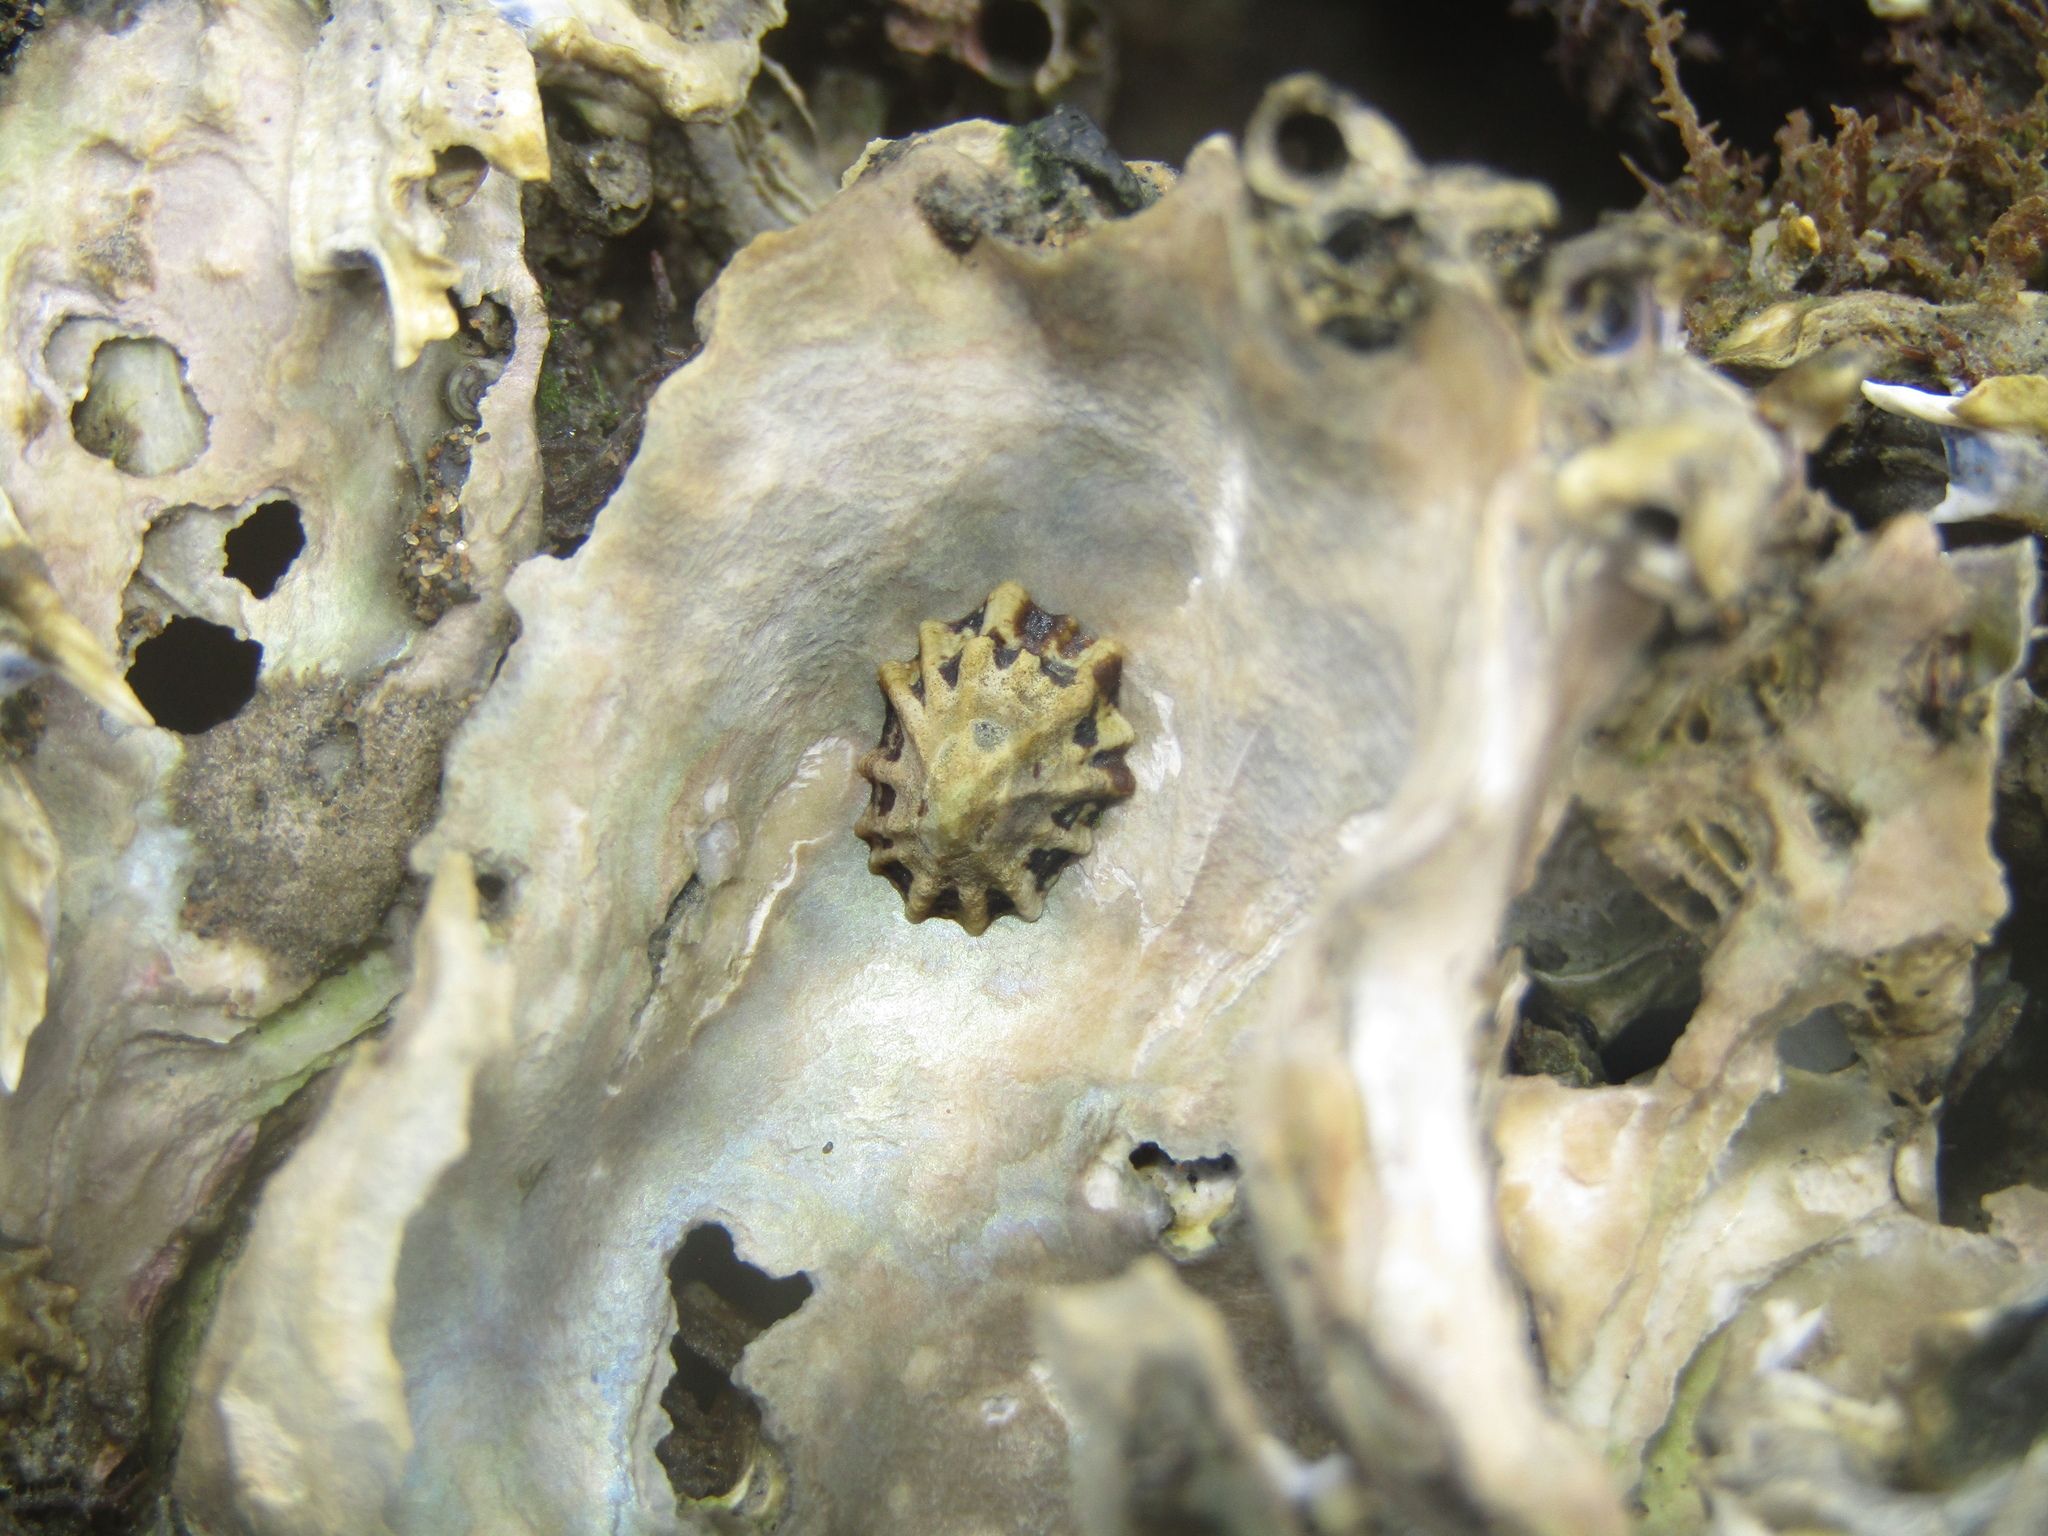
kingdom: Animalia
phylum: Mollusca
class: Gastropoda
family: Lottiidae
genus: Patelloida
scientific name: Patelloida corticata
